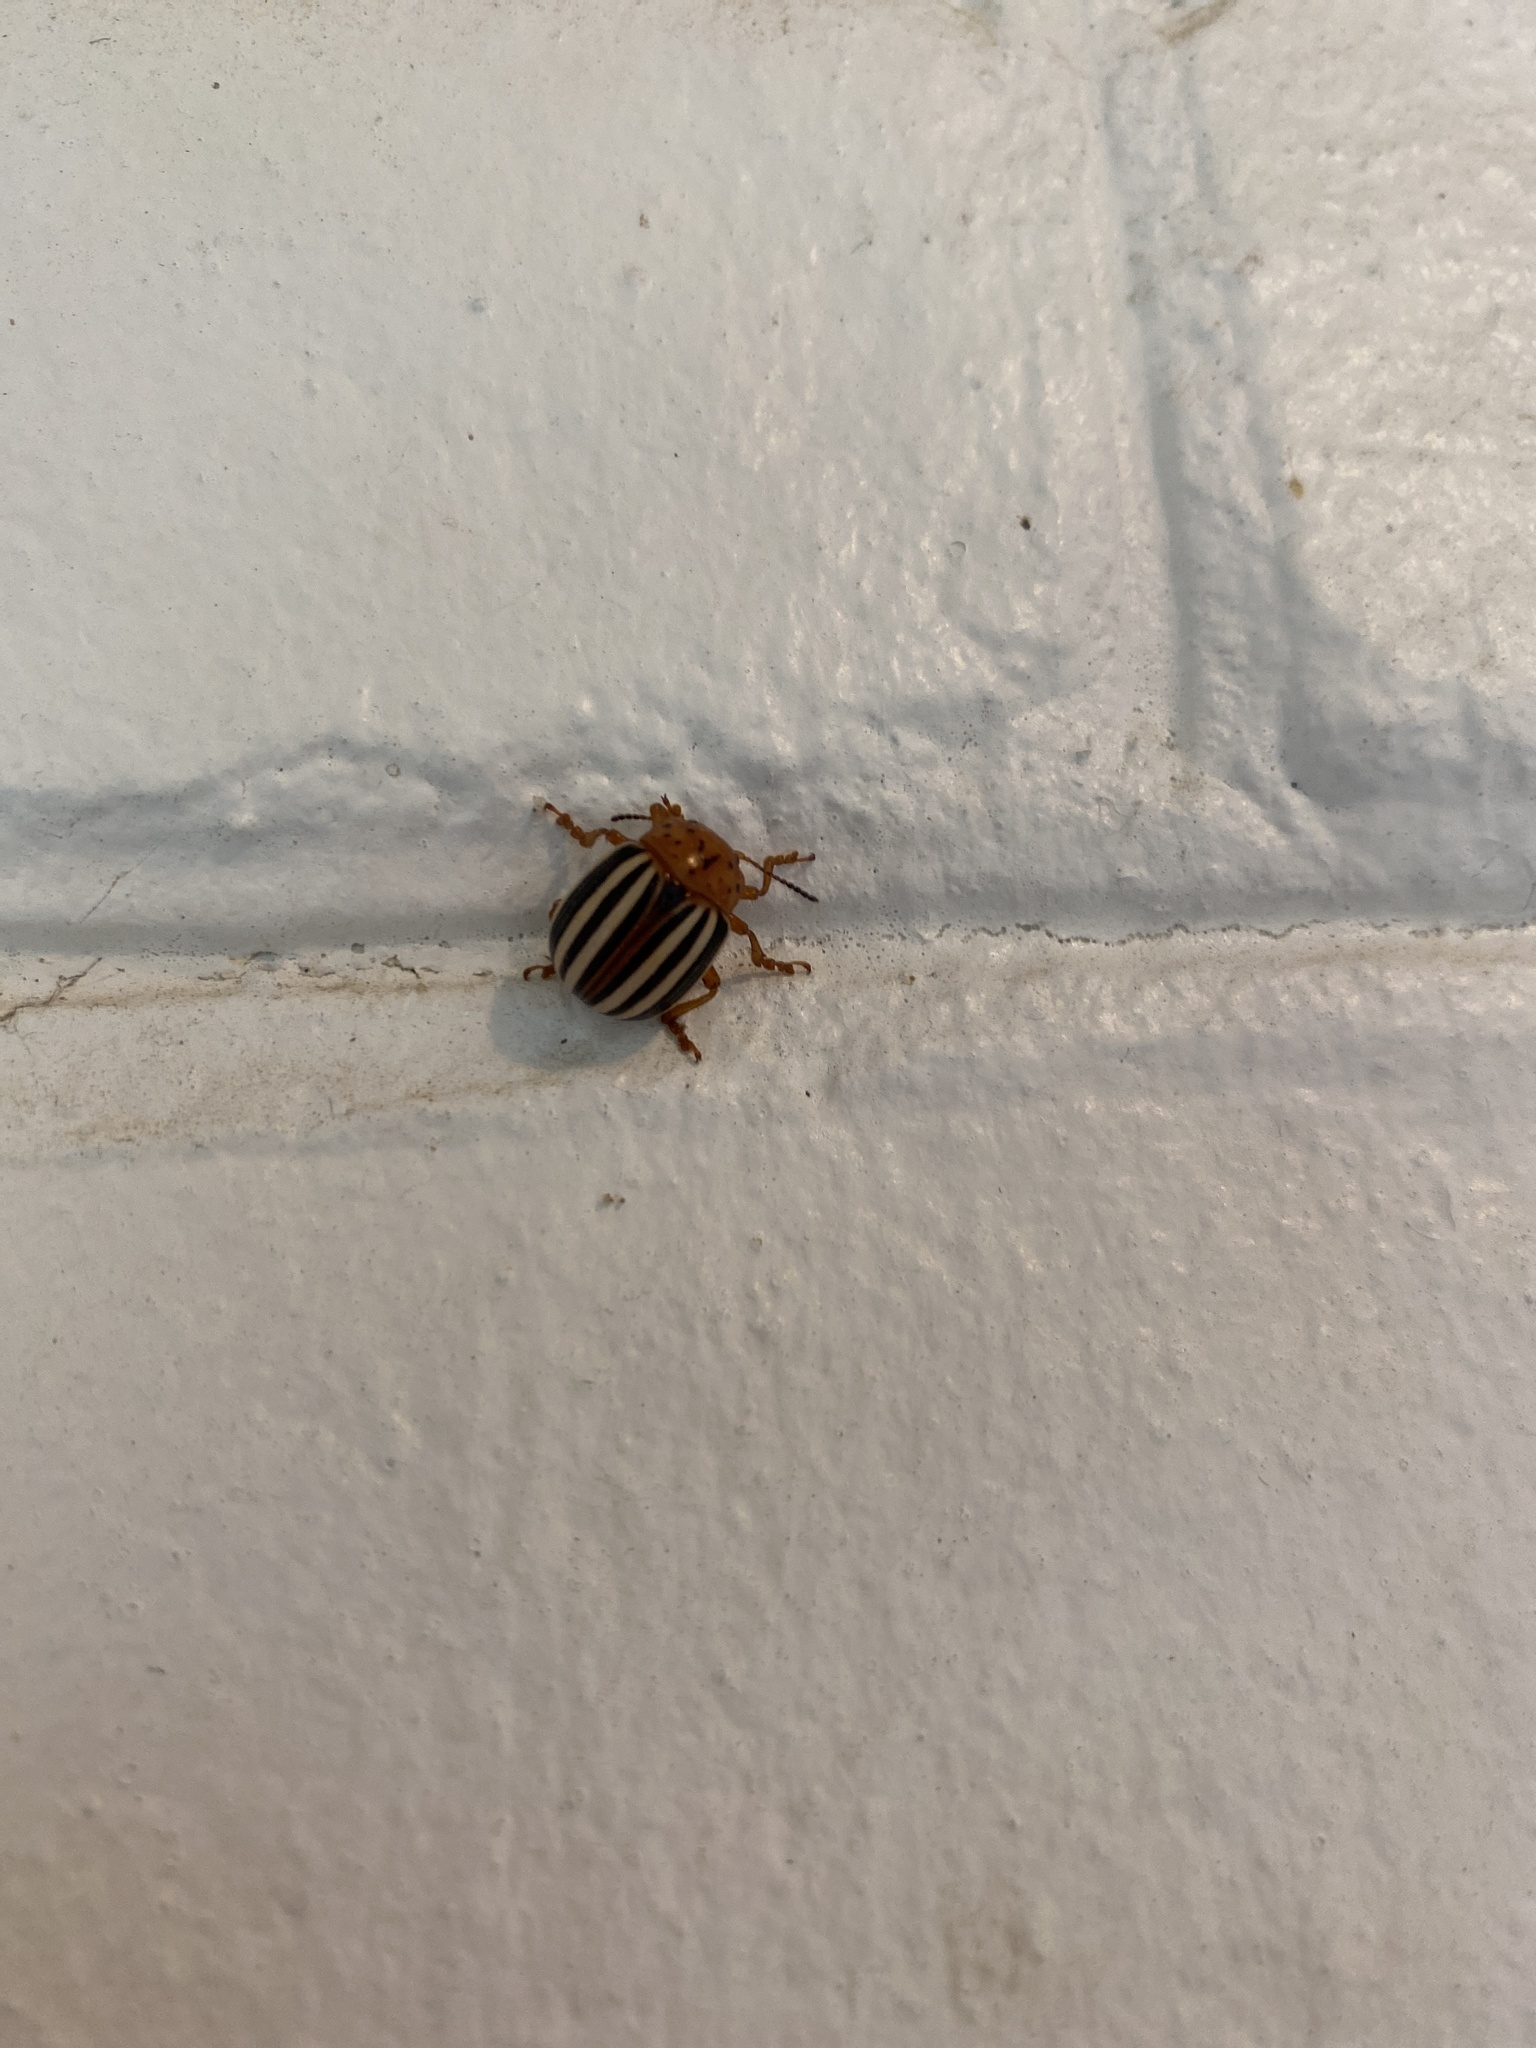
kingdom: Animalia
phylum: Arthropoda
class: Insecta
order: Coleoptera
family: Chrysomelidae
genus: Leptinotarsa
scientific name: Leptinotarsa juncta
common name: False potato beetle
